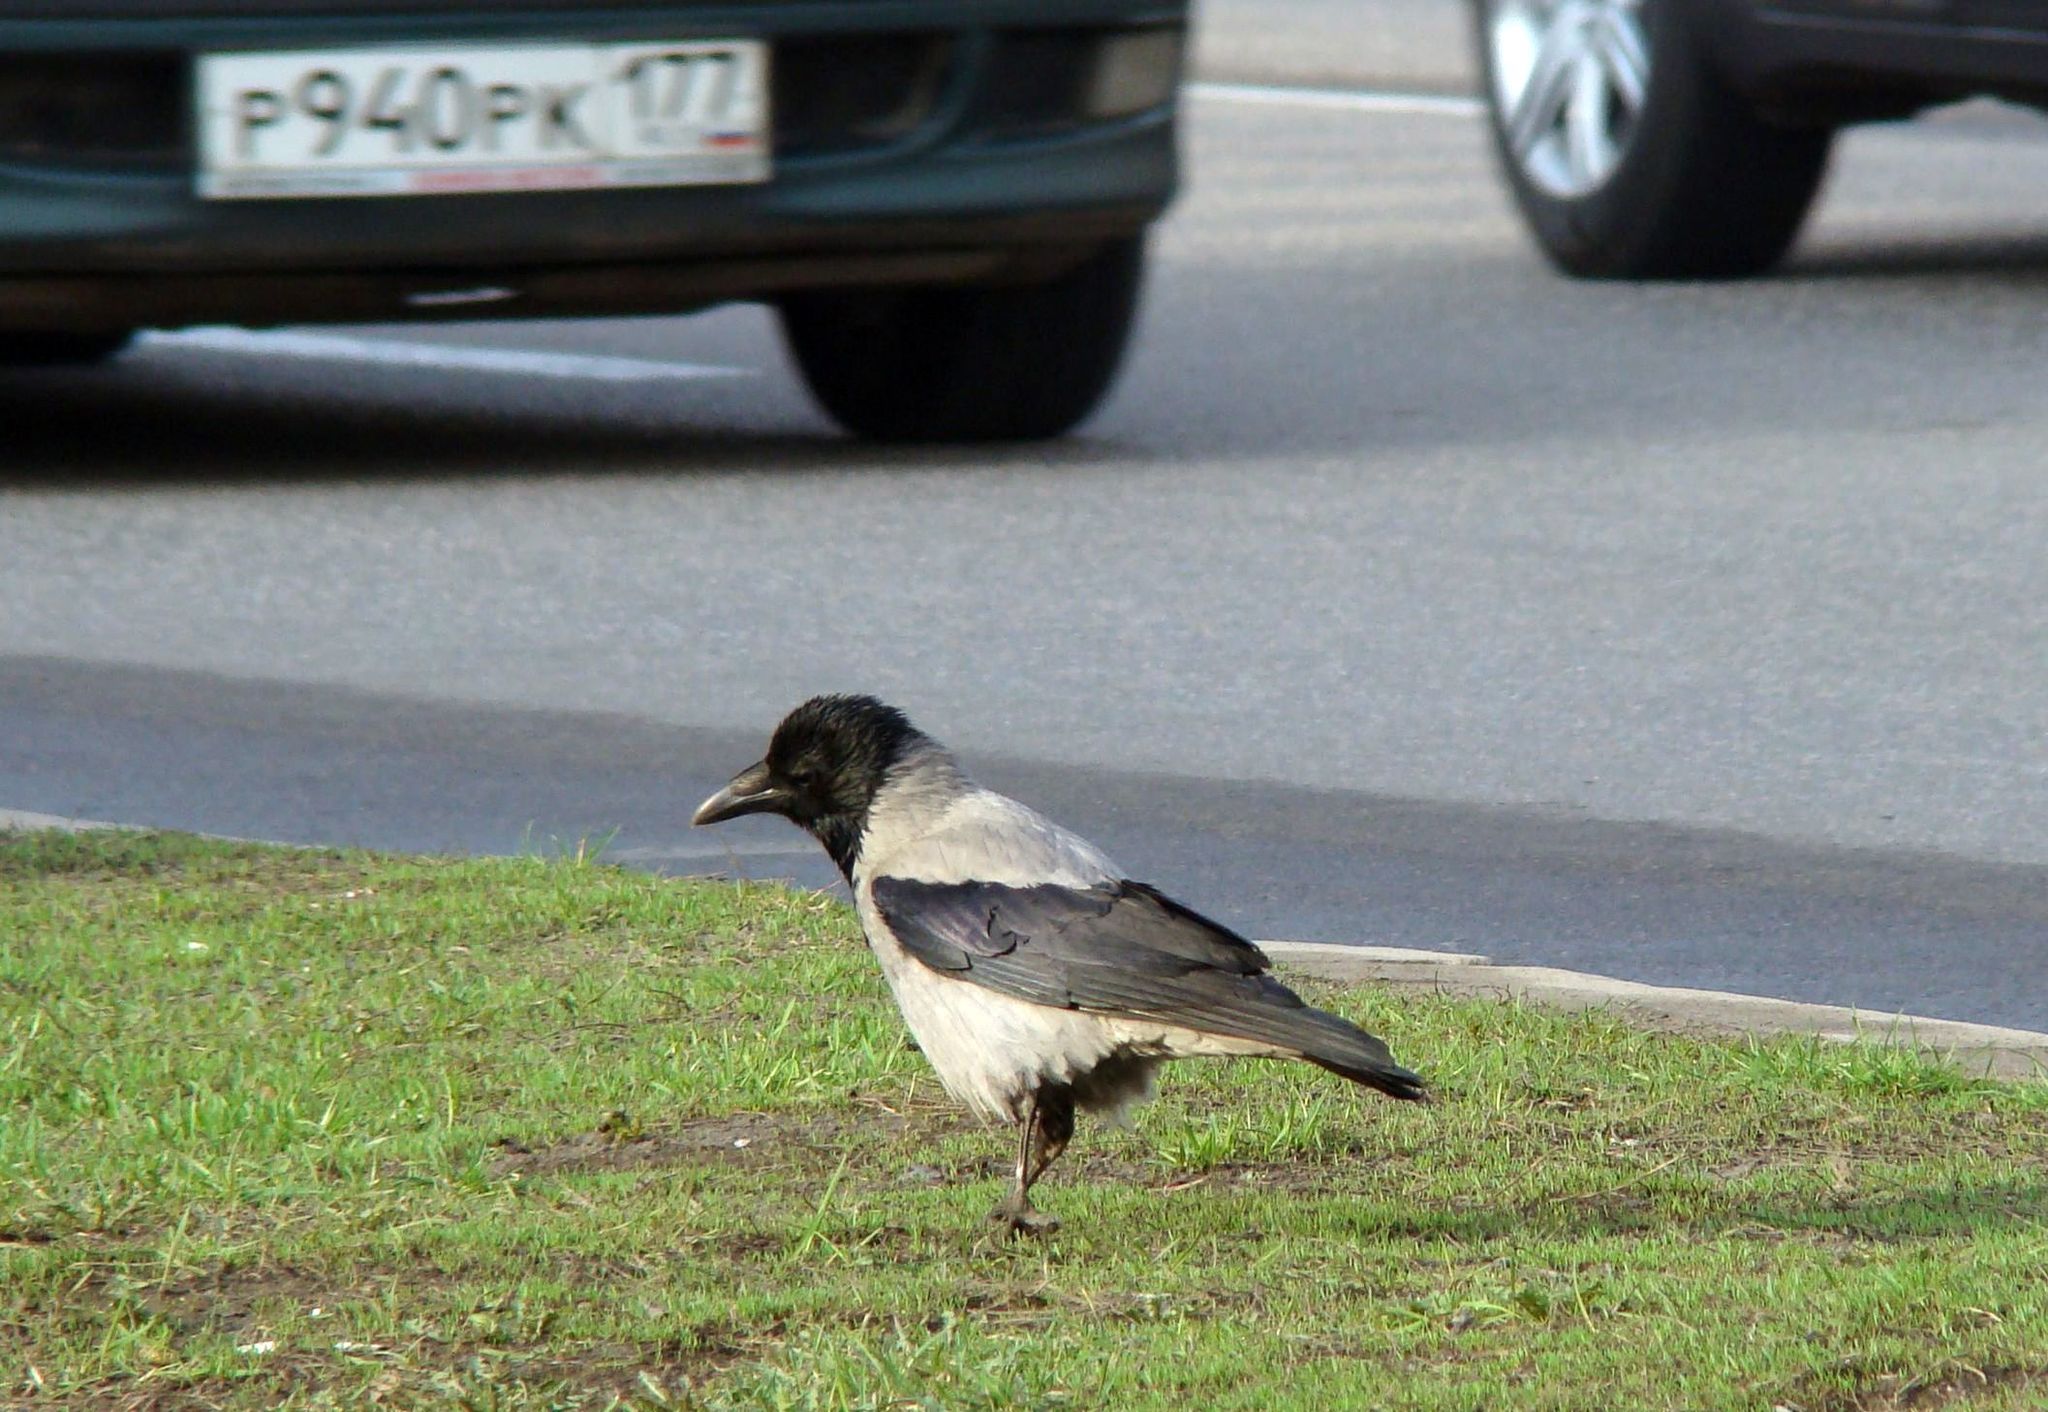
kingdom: Animalia
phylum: Chordata
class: Aves
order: Passeriformes
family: Corvidae
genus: Corvus
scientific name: Corvus cornix
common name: Hooded crow
